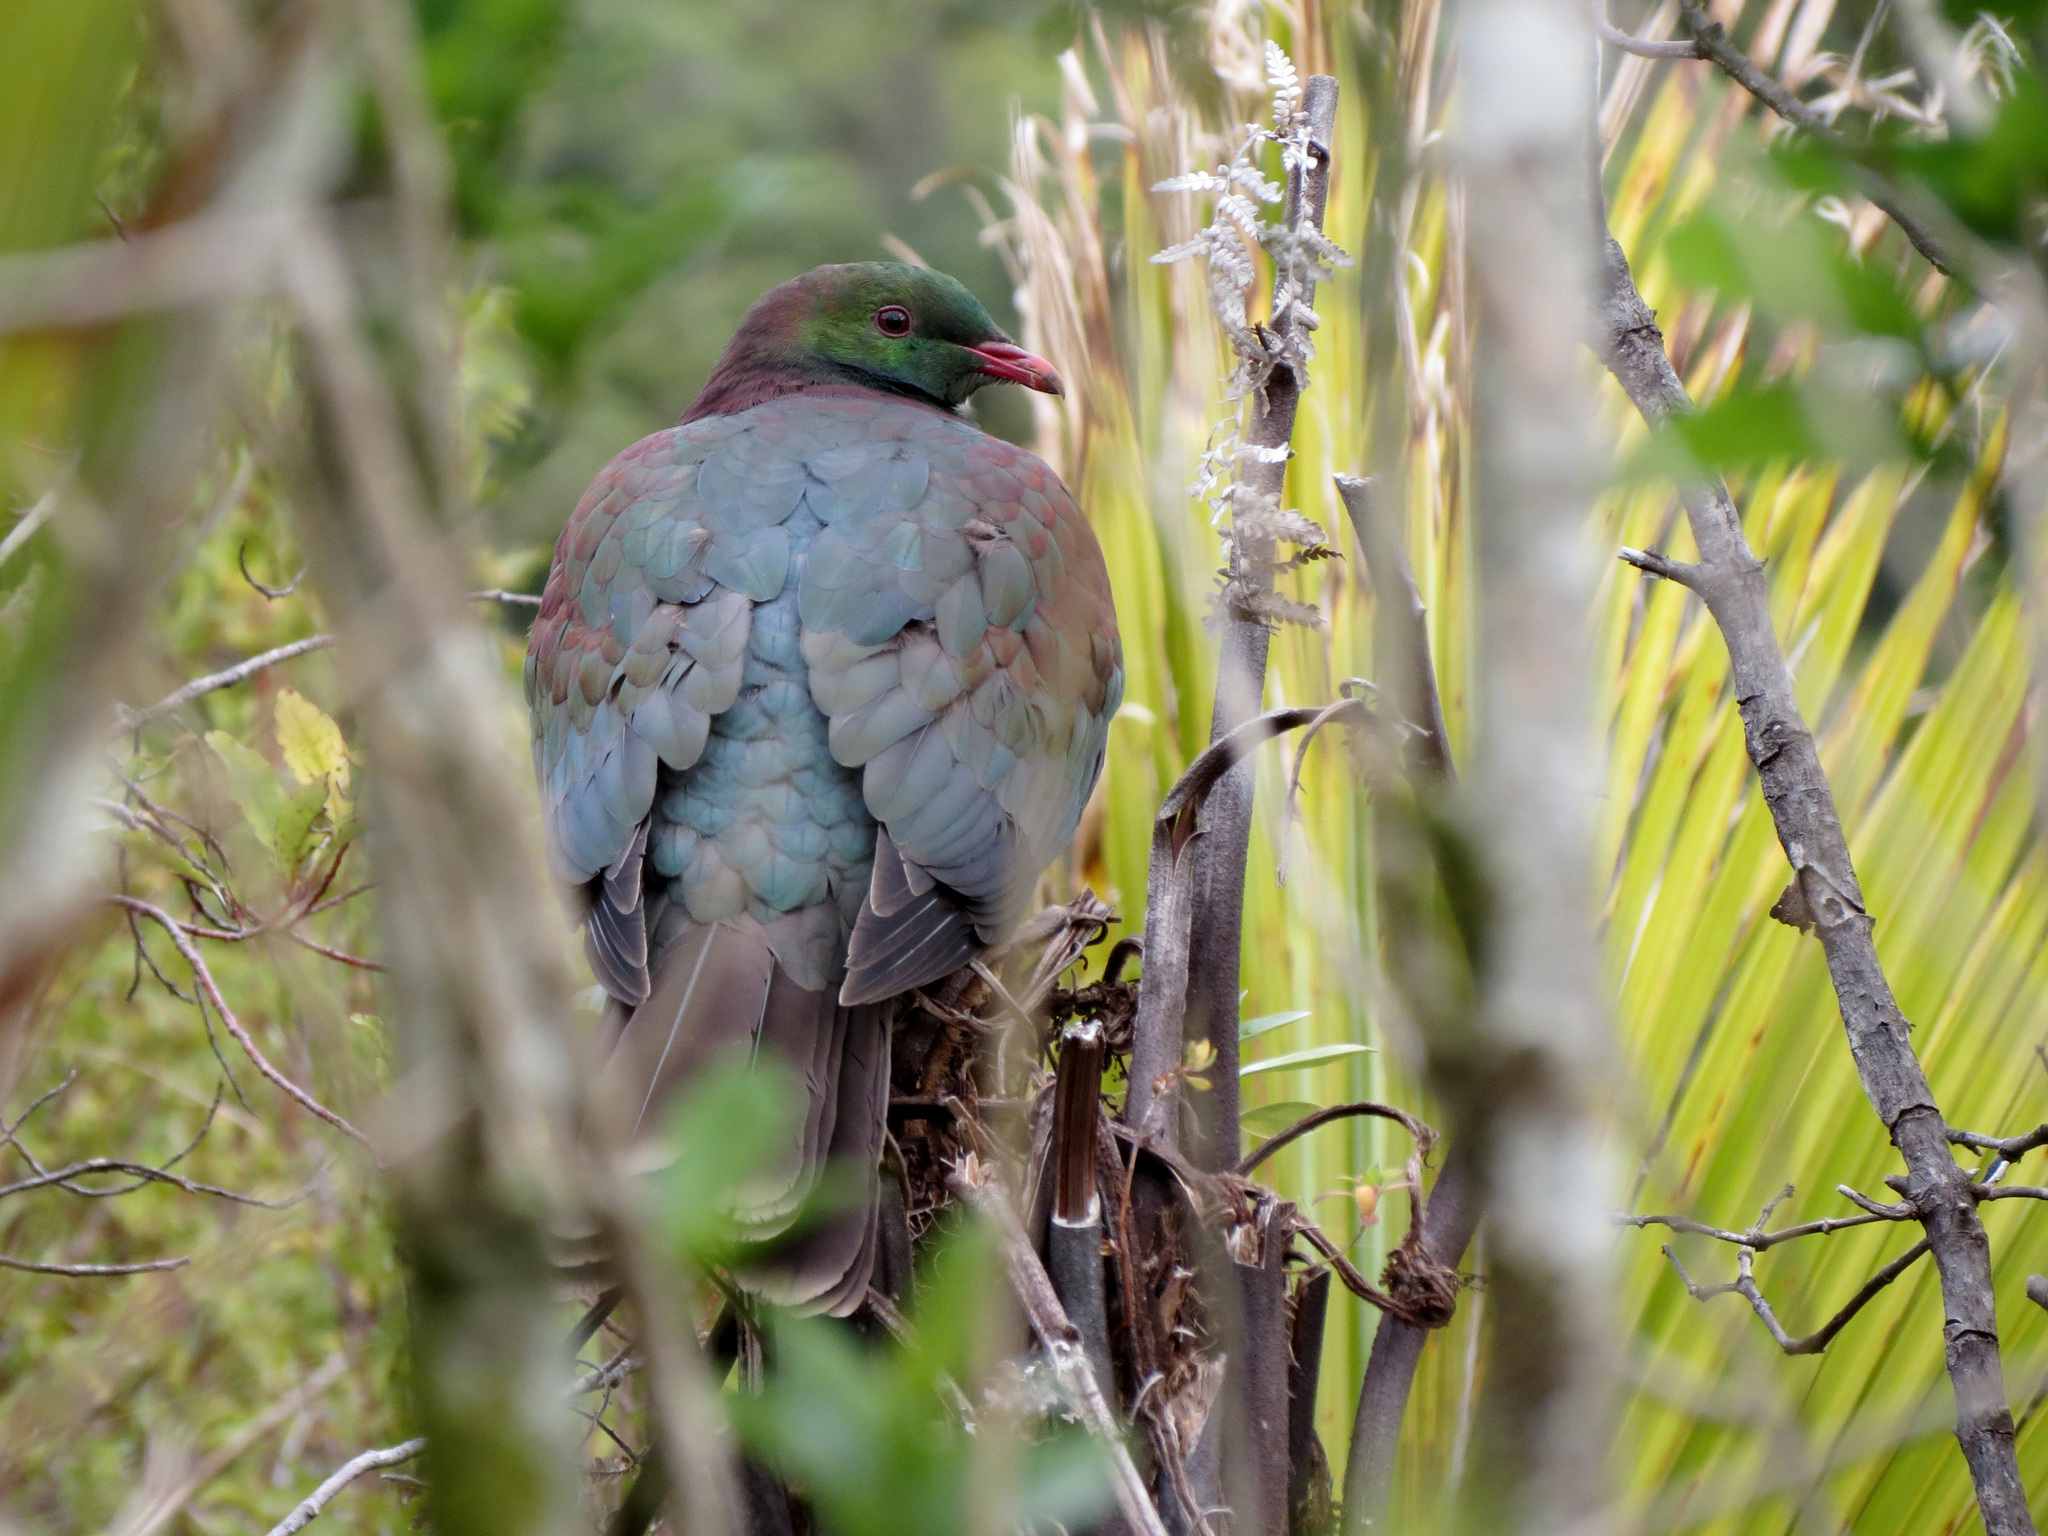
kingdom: Animalia
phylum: Chordata
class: Aves
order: Columbiformes
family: Columbidae
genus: Hemiphaga
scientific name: Hemiphaga novaeseelandiae
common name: New zealand pigeon
